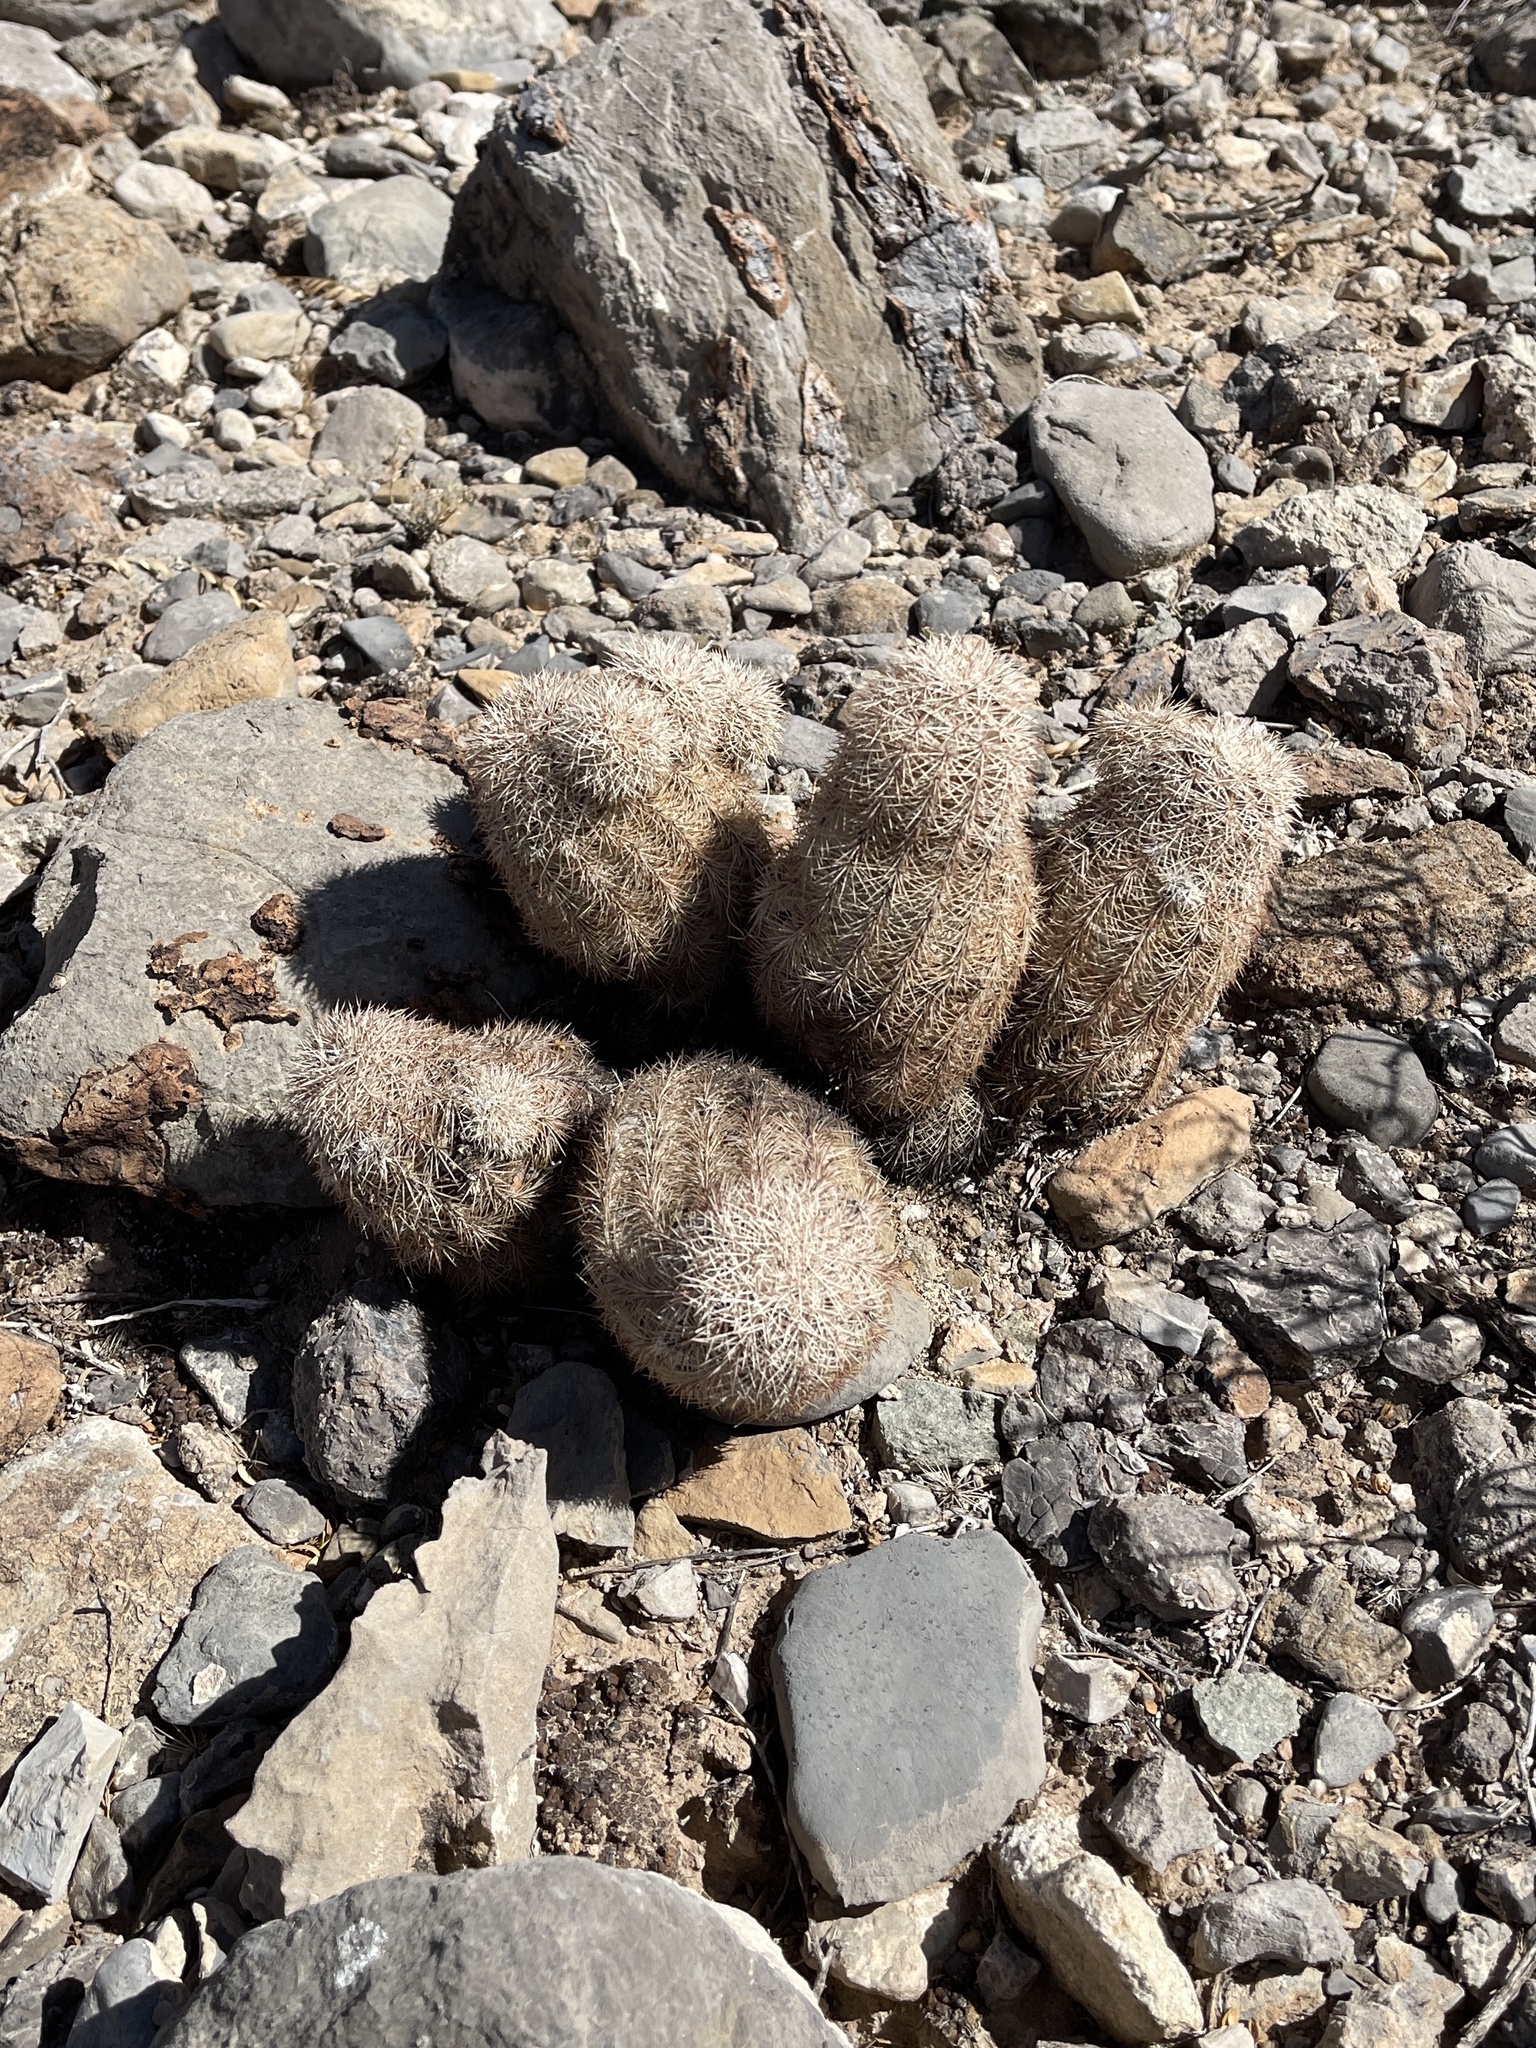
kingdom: Plantae
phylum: Tracheophyta
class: Magnoliopsida
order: Caryophyllales
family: Cactaceae
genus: Echinocereus
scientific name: Echinocereus dasyacanthus
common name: Spiny hedgehog cactus
